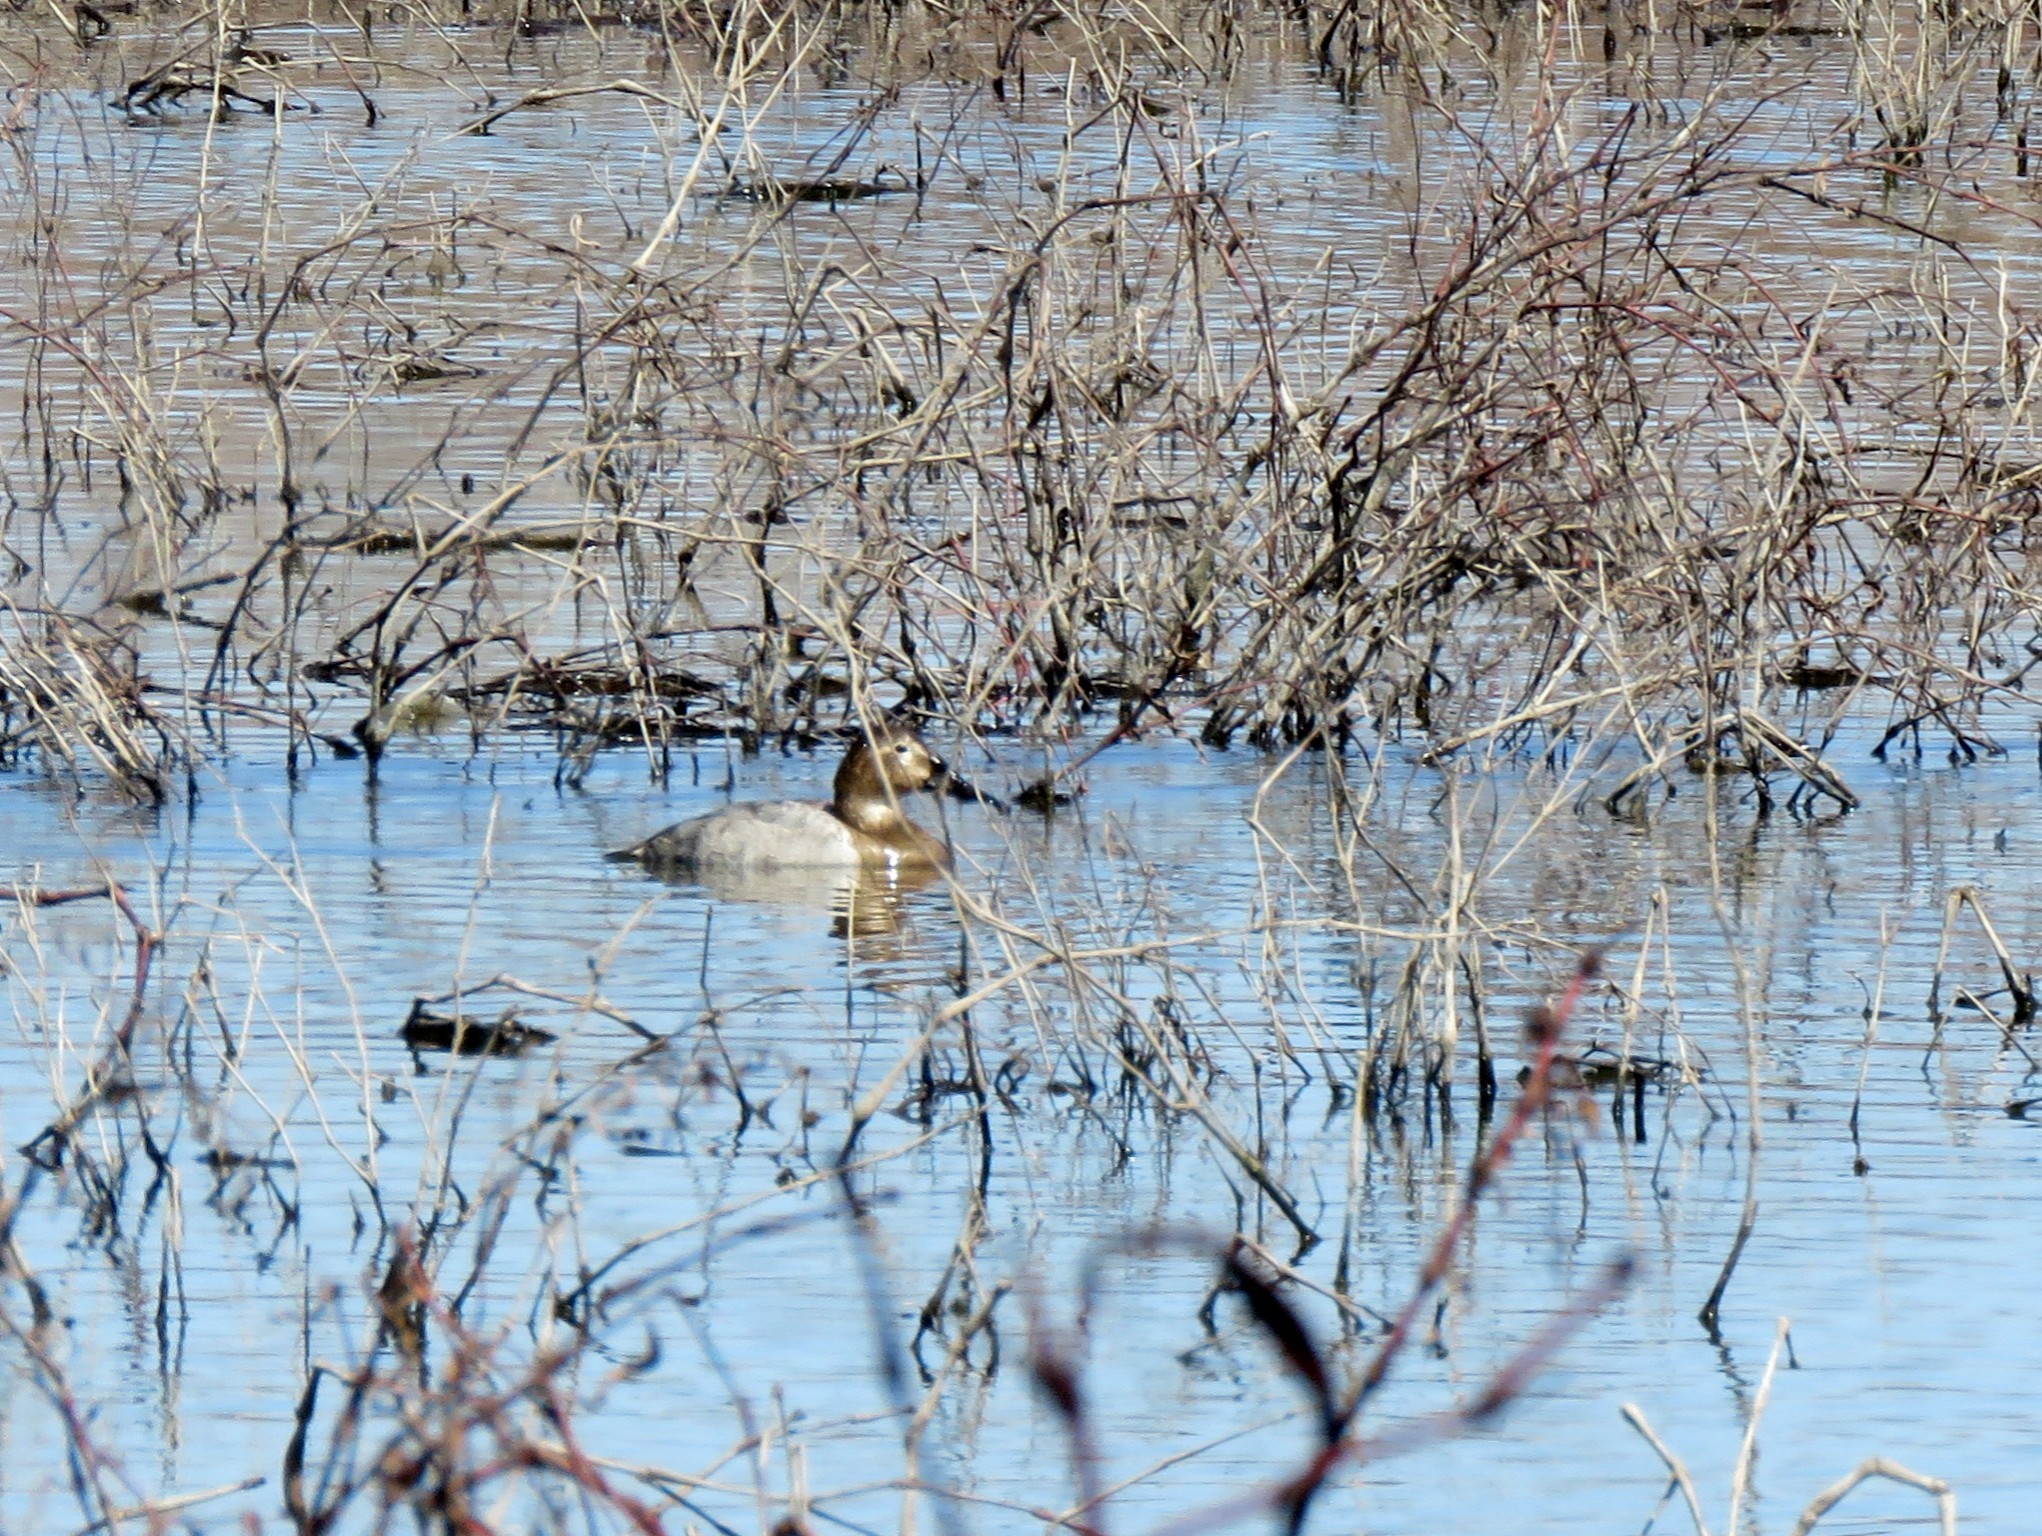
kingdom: Animalia
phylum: Chordata
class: Aves
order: Anseriformes
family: Anatidae
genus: Aythya
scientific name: Aythya valisineria
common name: Canvasback
